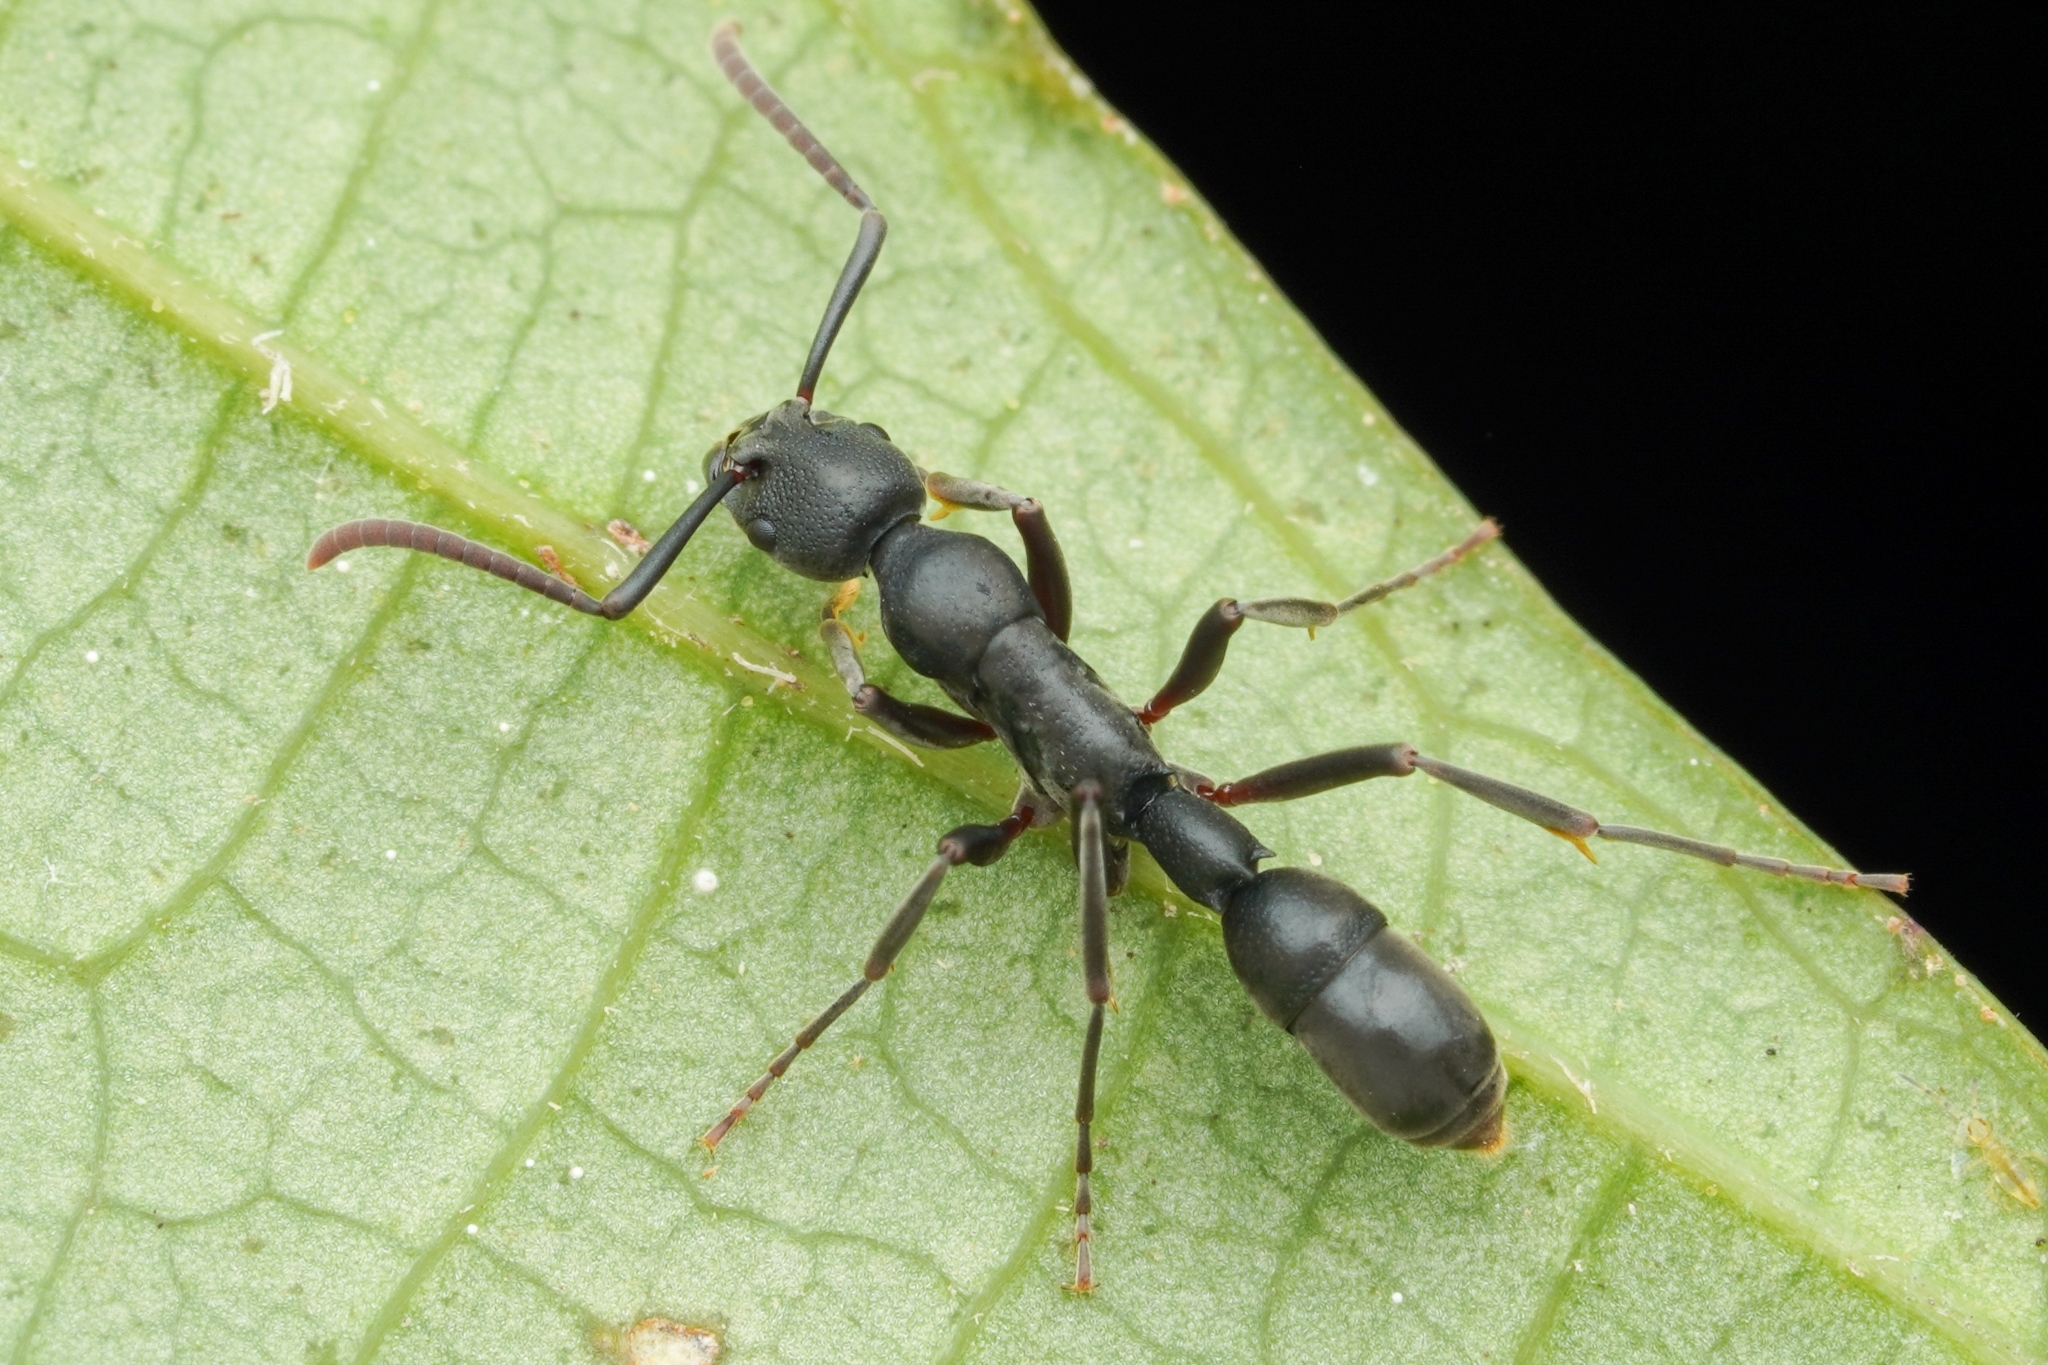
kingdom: Animalia
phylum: Arthropoda
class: Insecta
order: Hymenoptera
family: Formicidae
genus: Platythyrea
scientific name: Platythyrea tricuspidata
